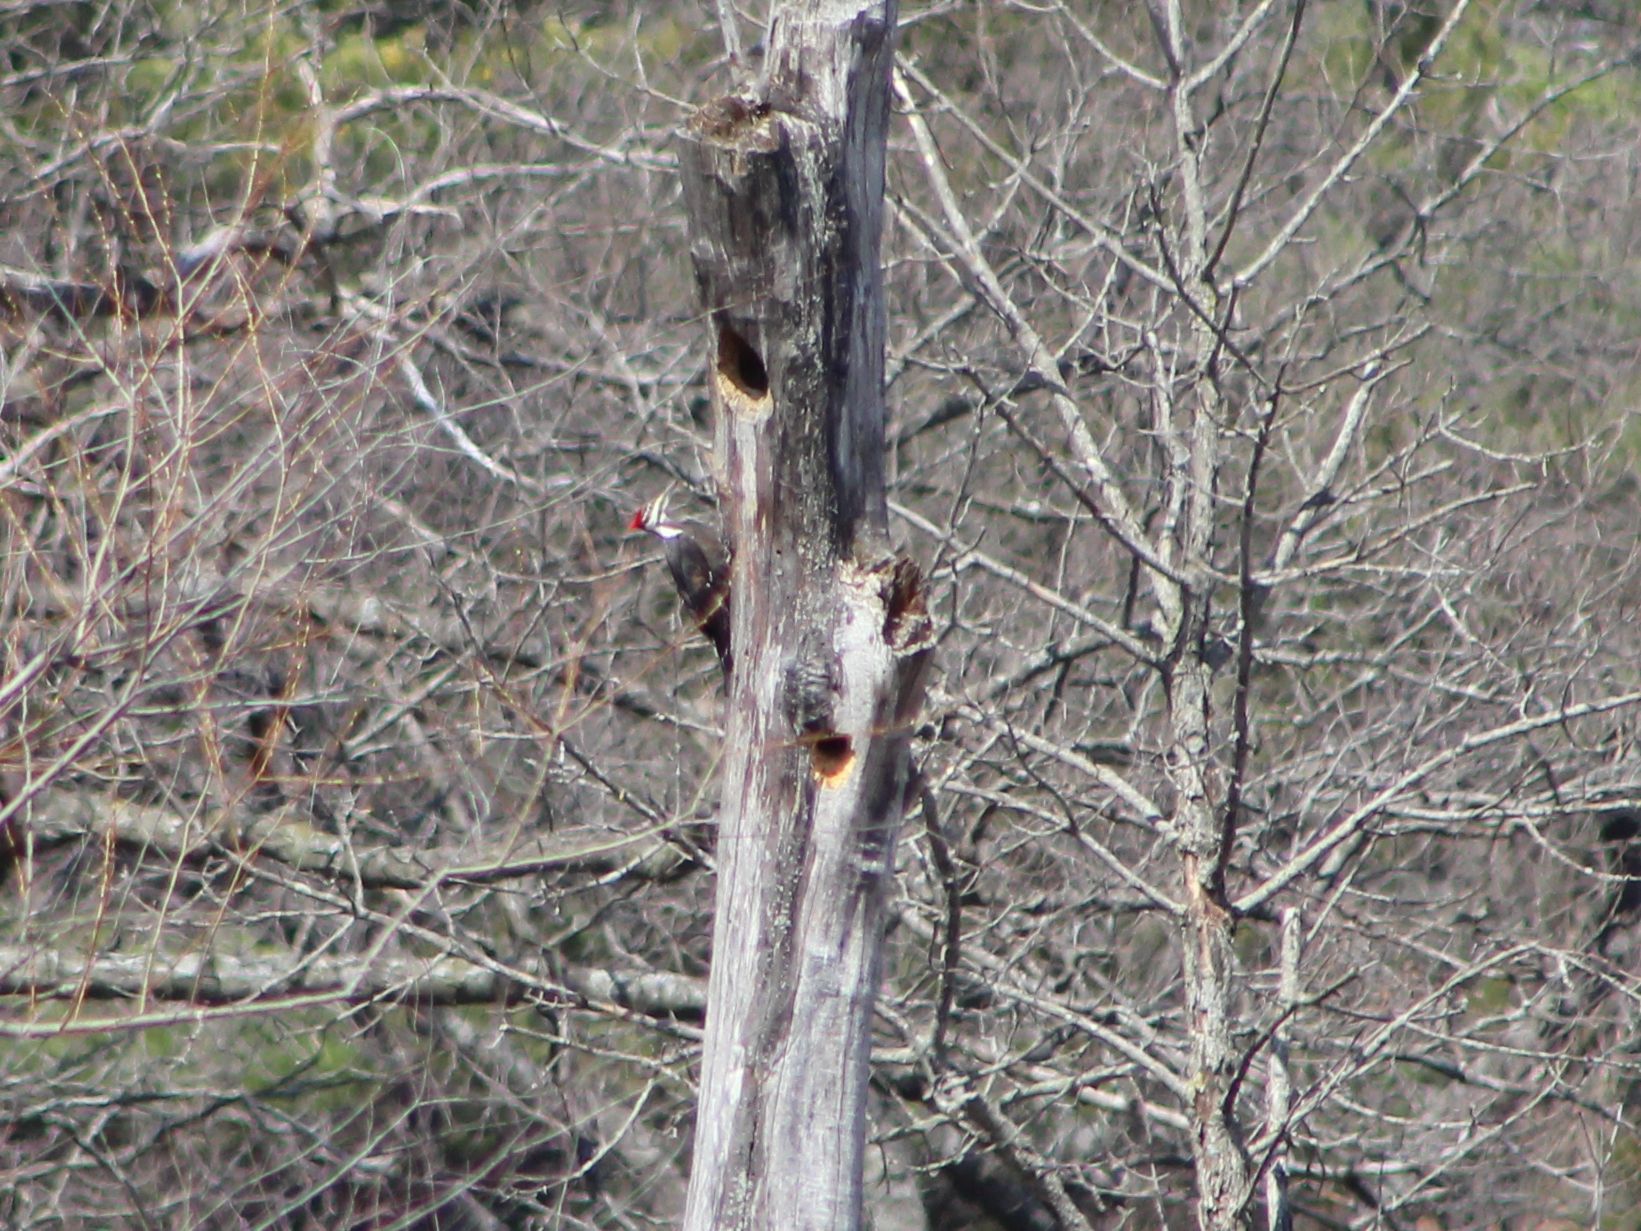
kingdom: Animalia
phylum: Chordata
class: Aves
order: Piciformes
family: Picidae
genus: Dryocopus
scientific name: Dryocopus pileatus
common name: Pileated woodpecker
